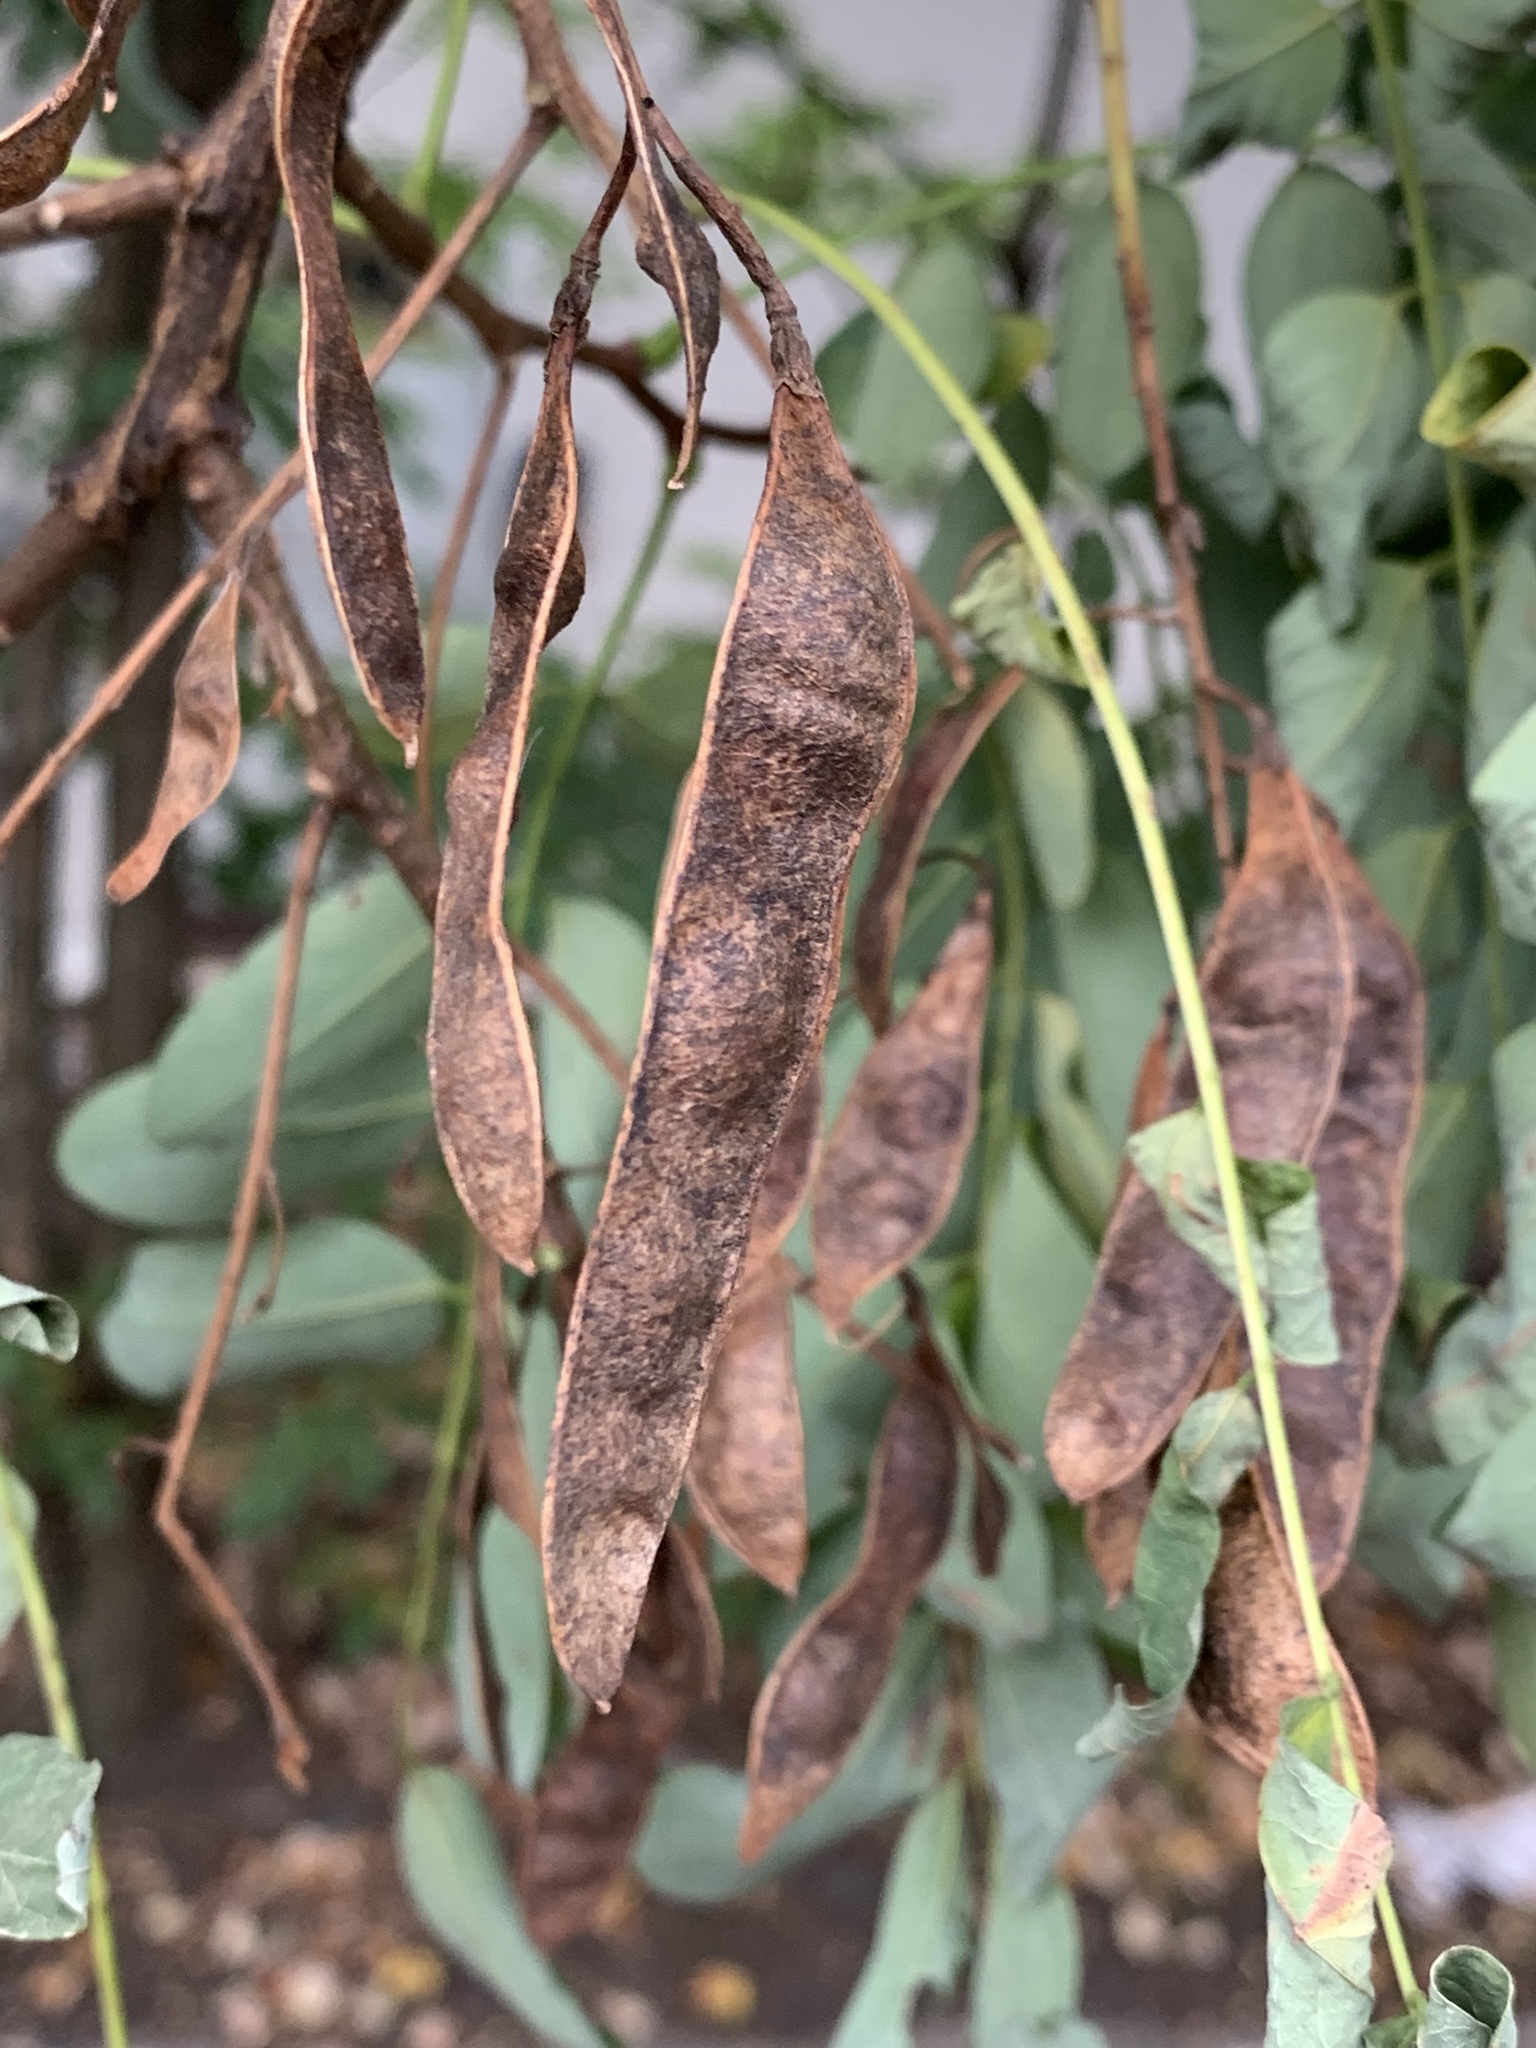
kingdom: Plantae
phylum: Tracheophyta
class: Magnoliopsida
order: Fabales
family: Fabaceae
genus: Robinia
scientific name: Robinia pseudoacacia
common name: Black locust
